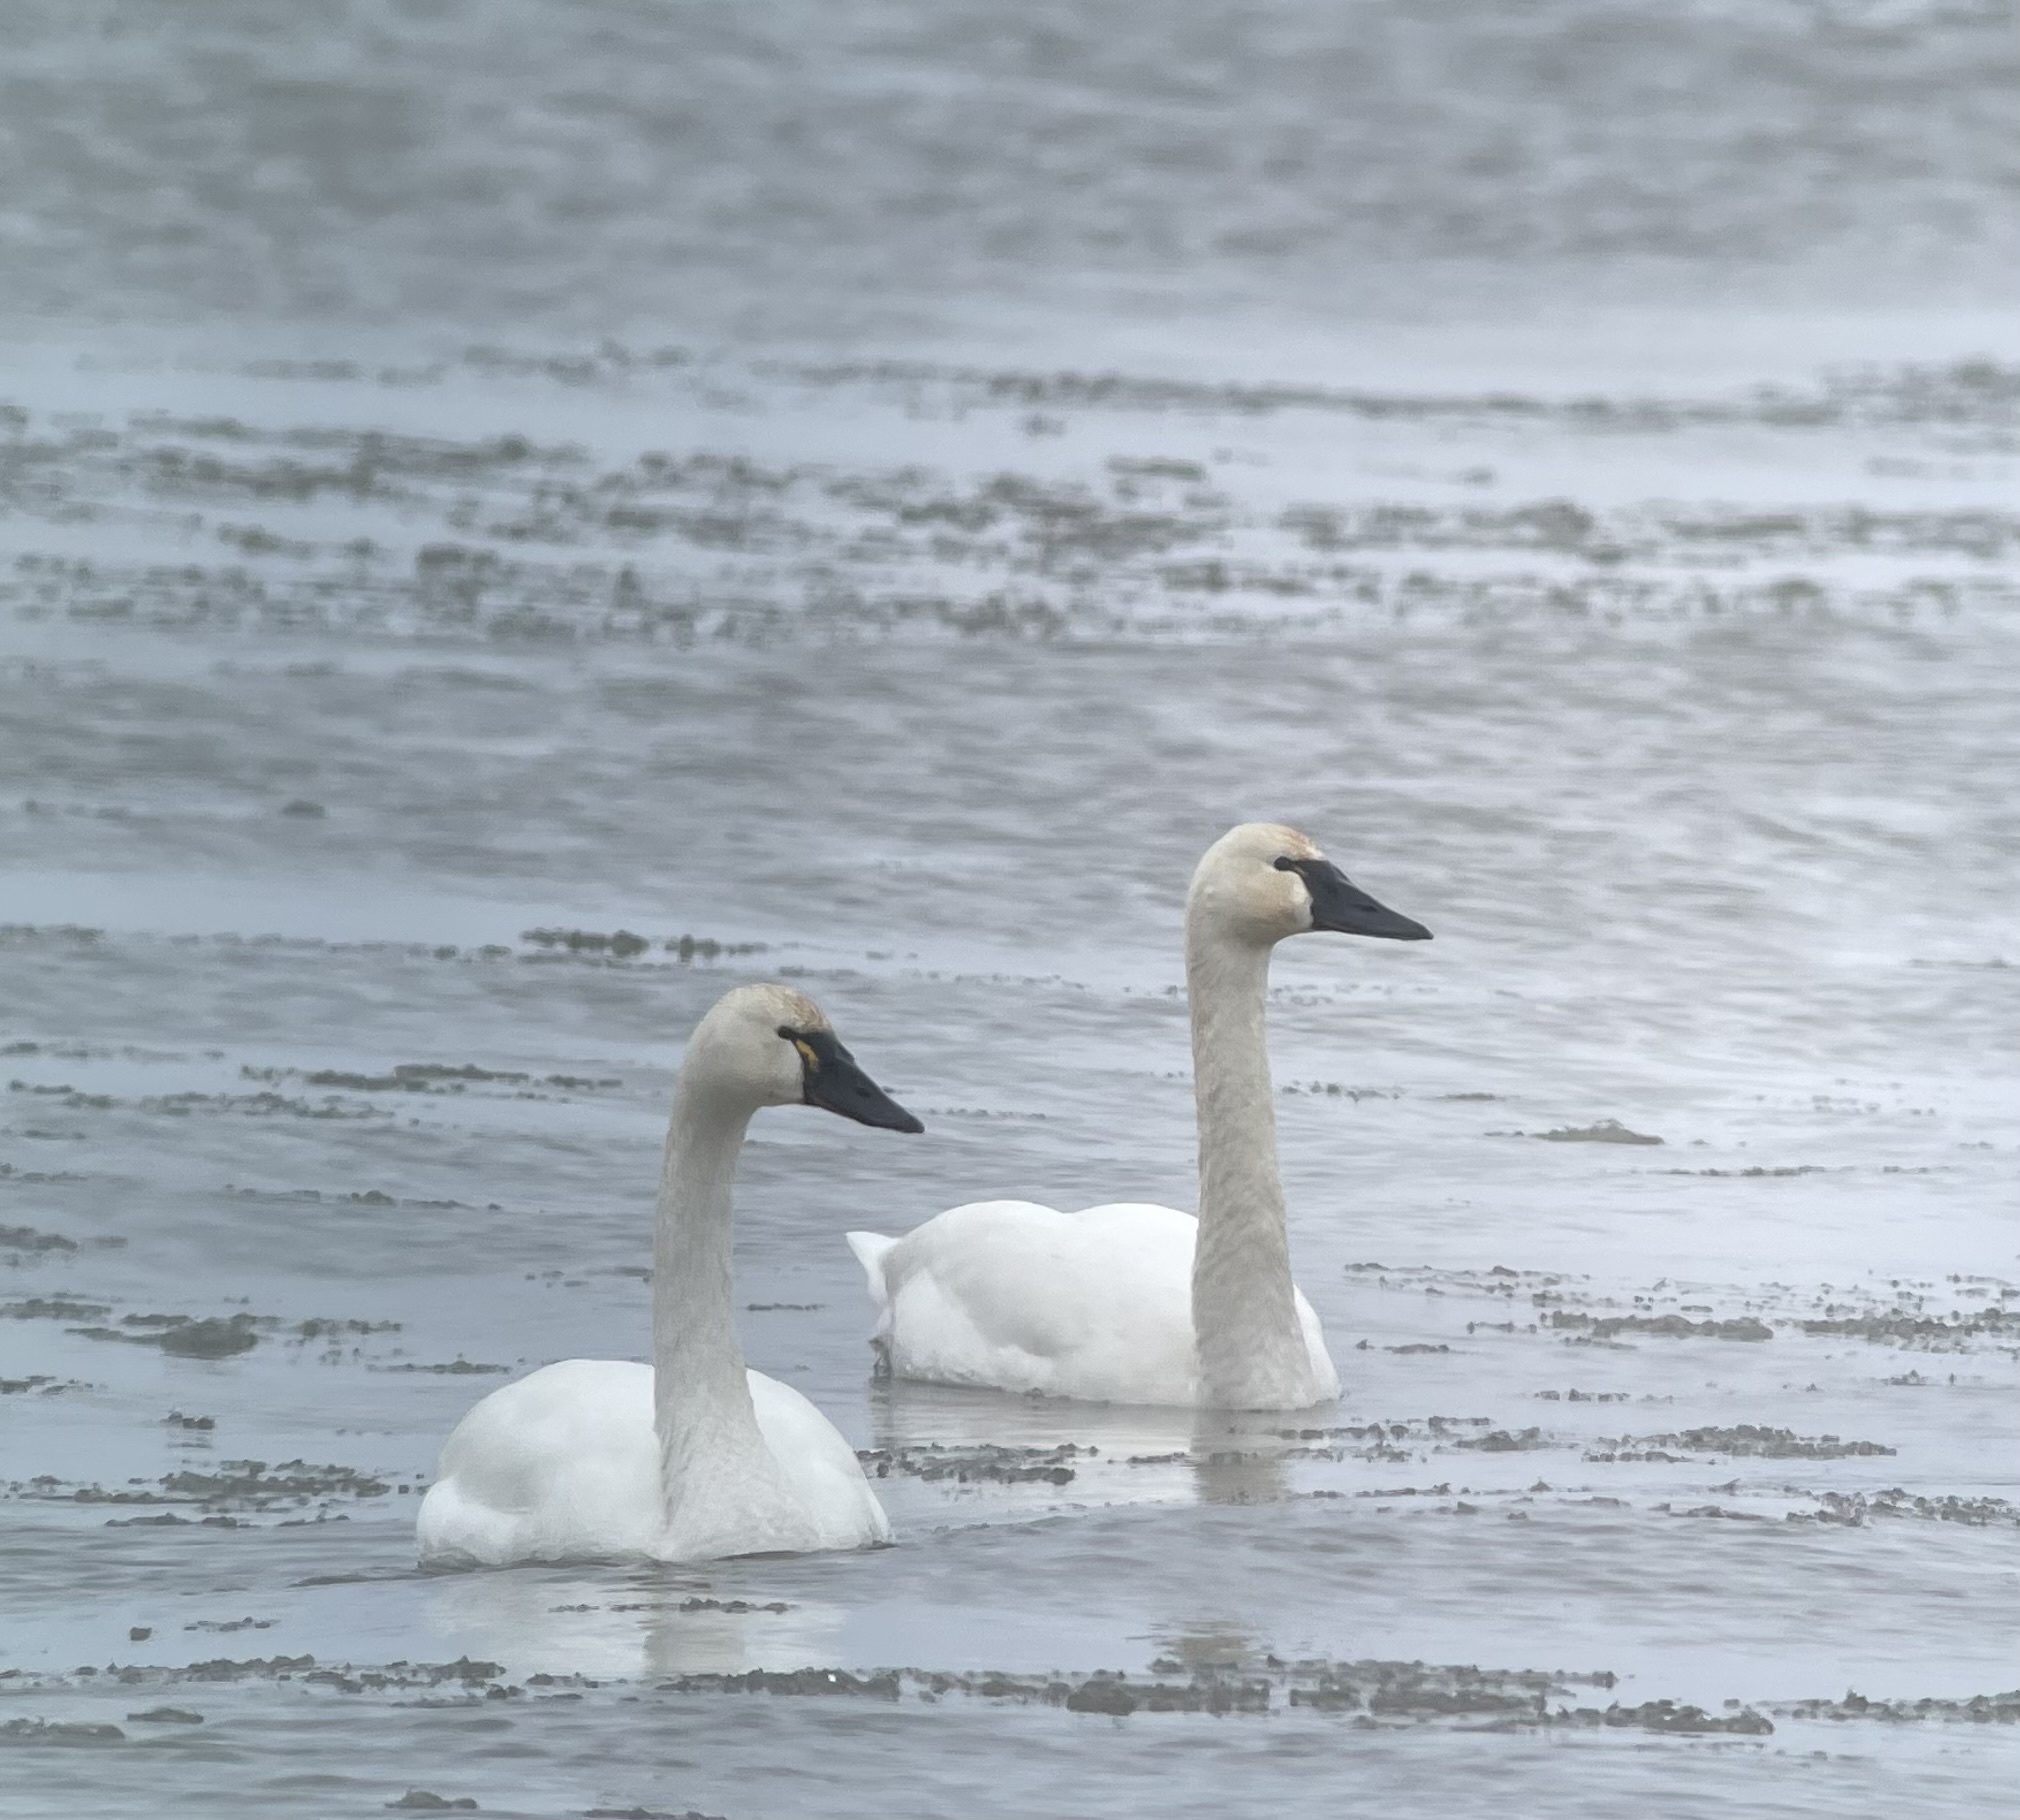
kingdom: Animalia
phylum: Chordata
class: Aves
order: Anseriformes
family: Anatidae
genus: Cygnus
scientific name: Cygnus columbianus
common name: Tundra swan
